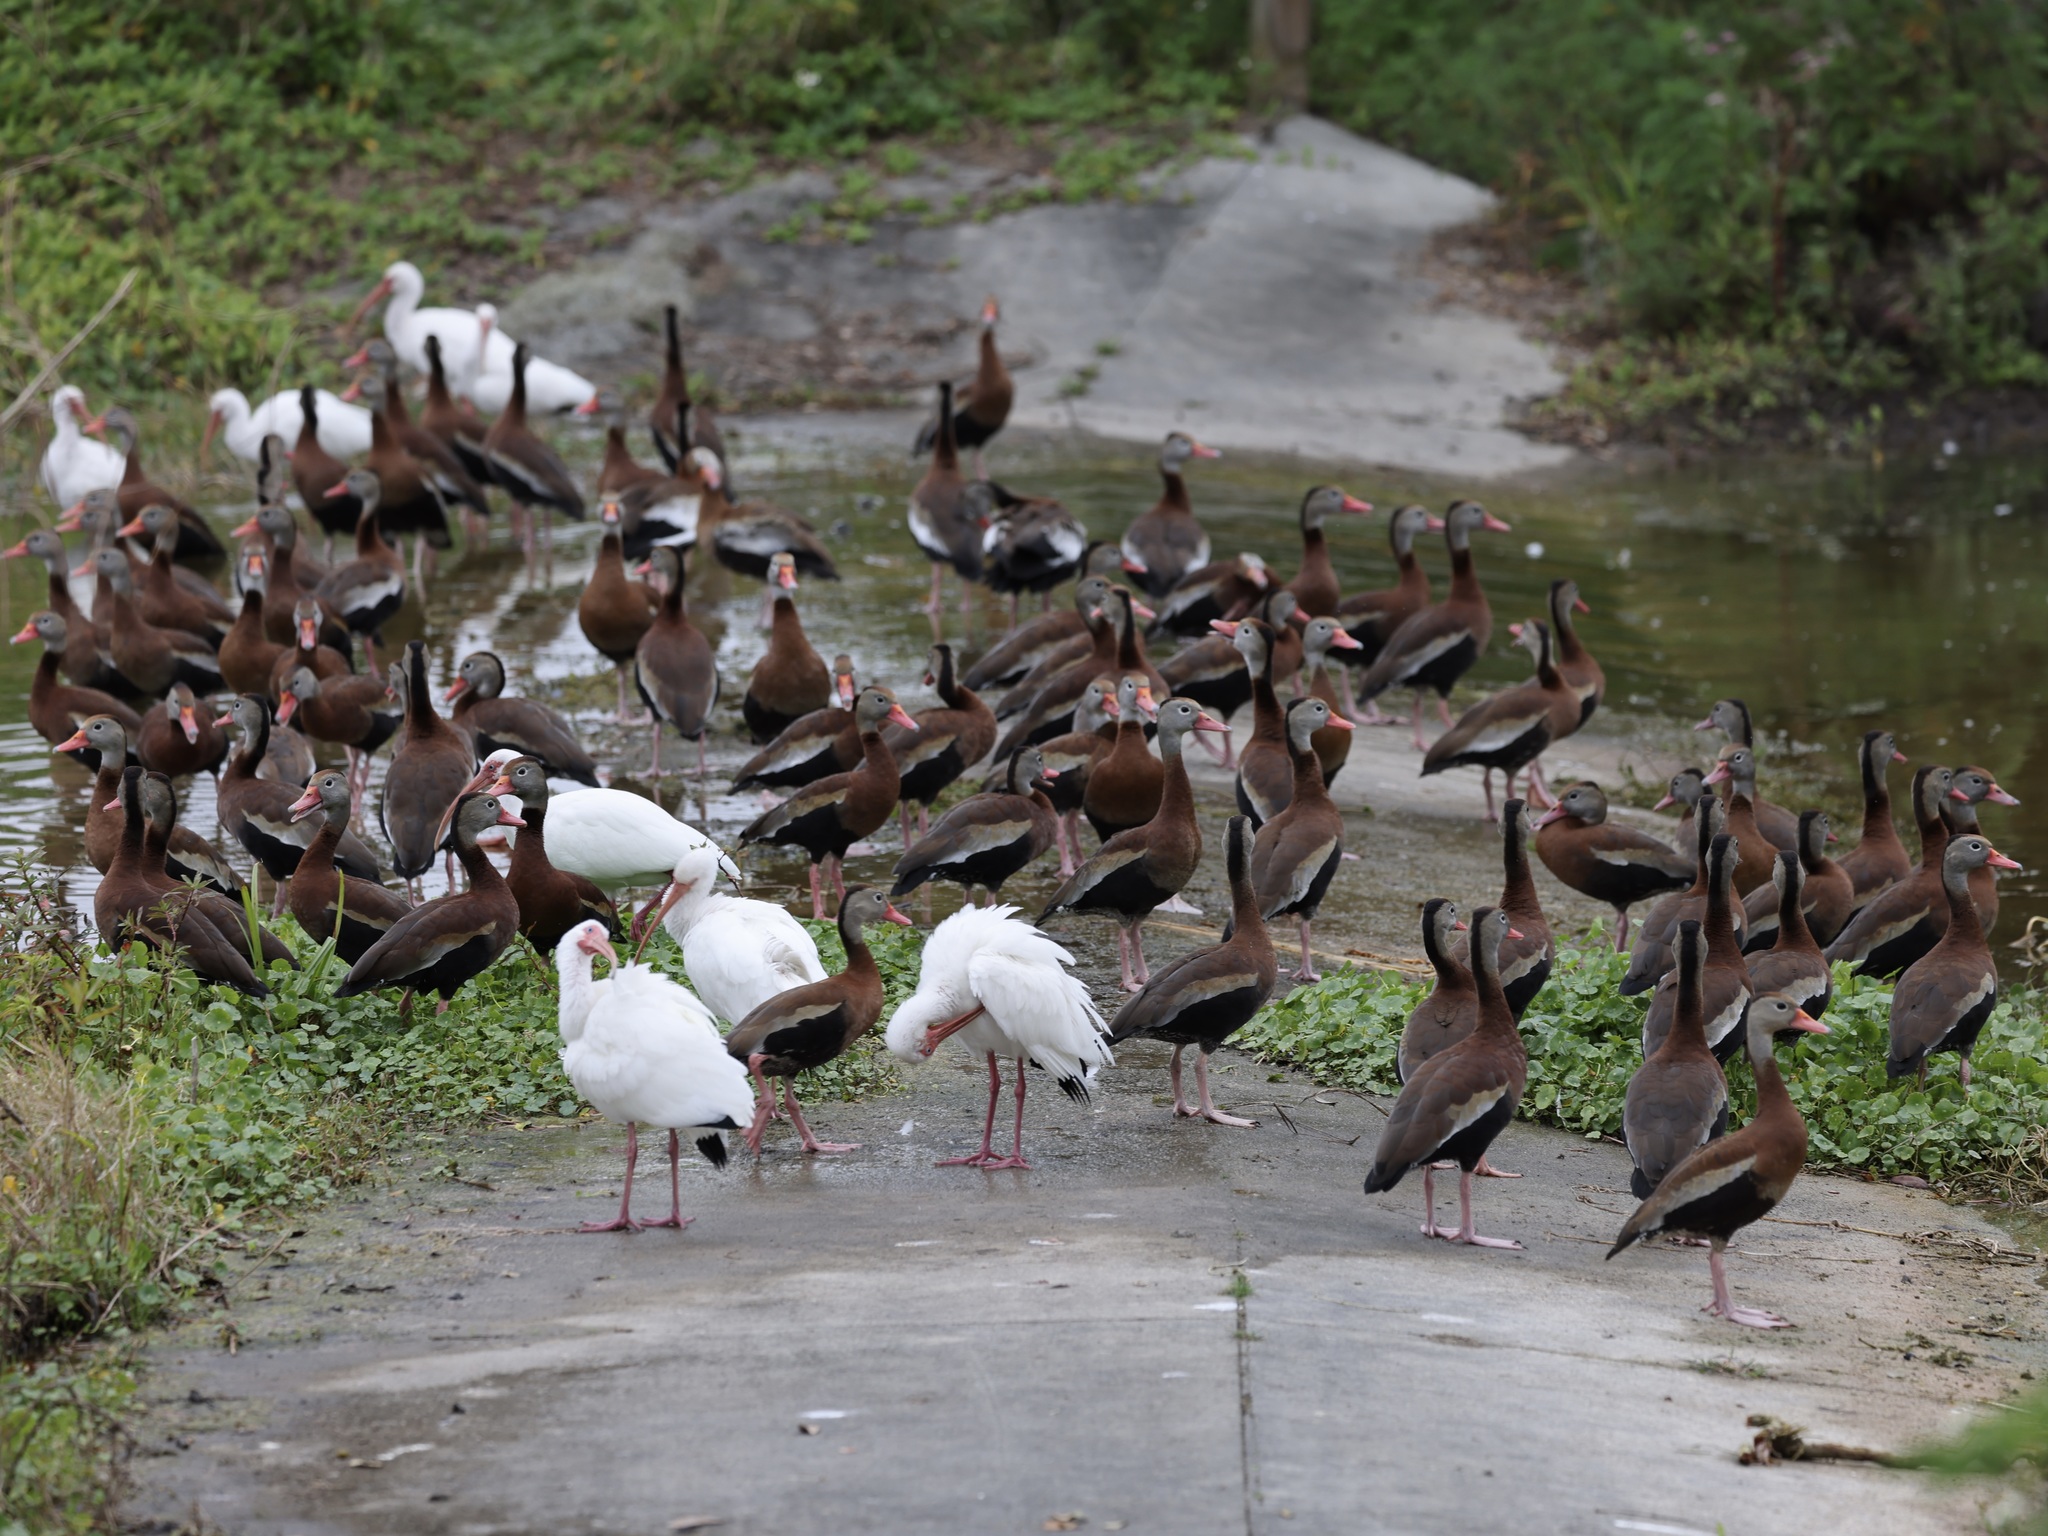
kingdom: Animalia
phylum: Chordata
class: Aves
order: Anseriformes
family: Anatidae
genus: Dendrocygna
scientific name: Dendrocygna autumnalis
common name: Black-bellied whistling duck
